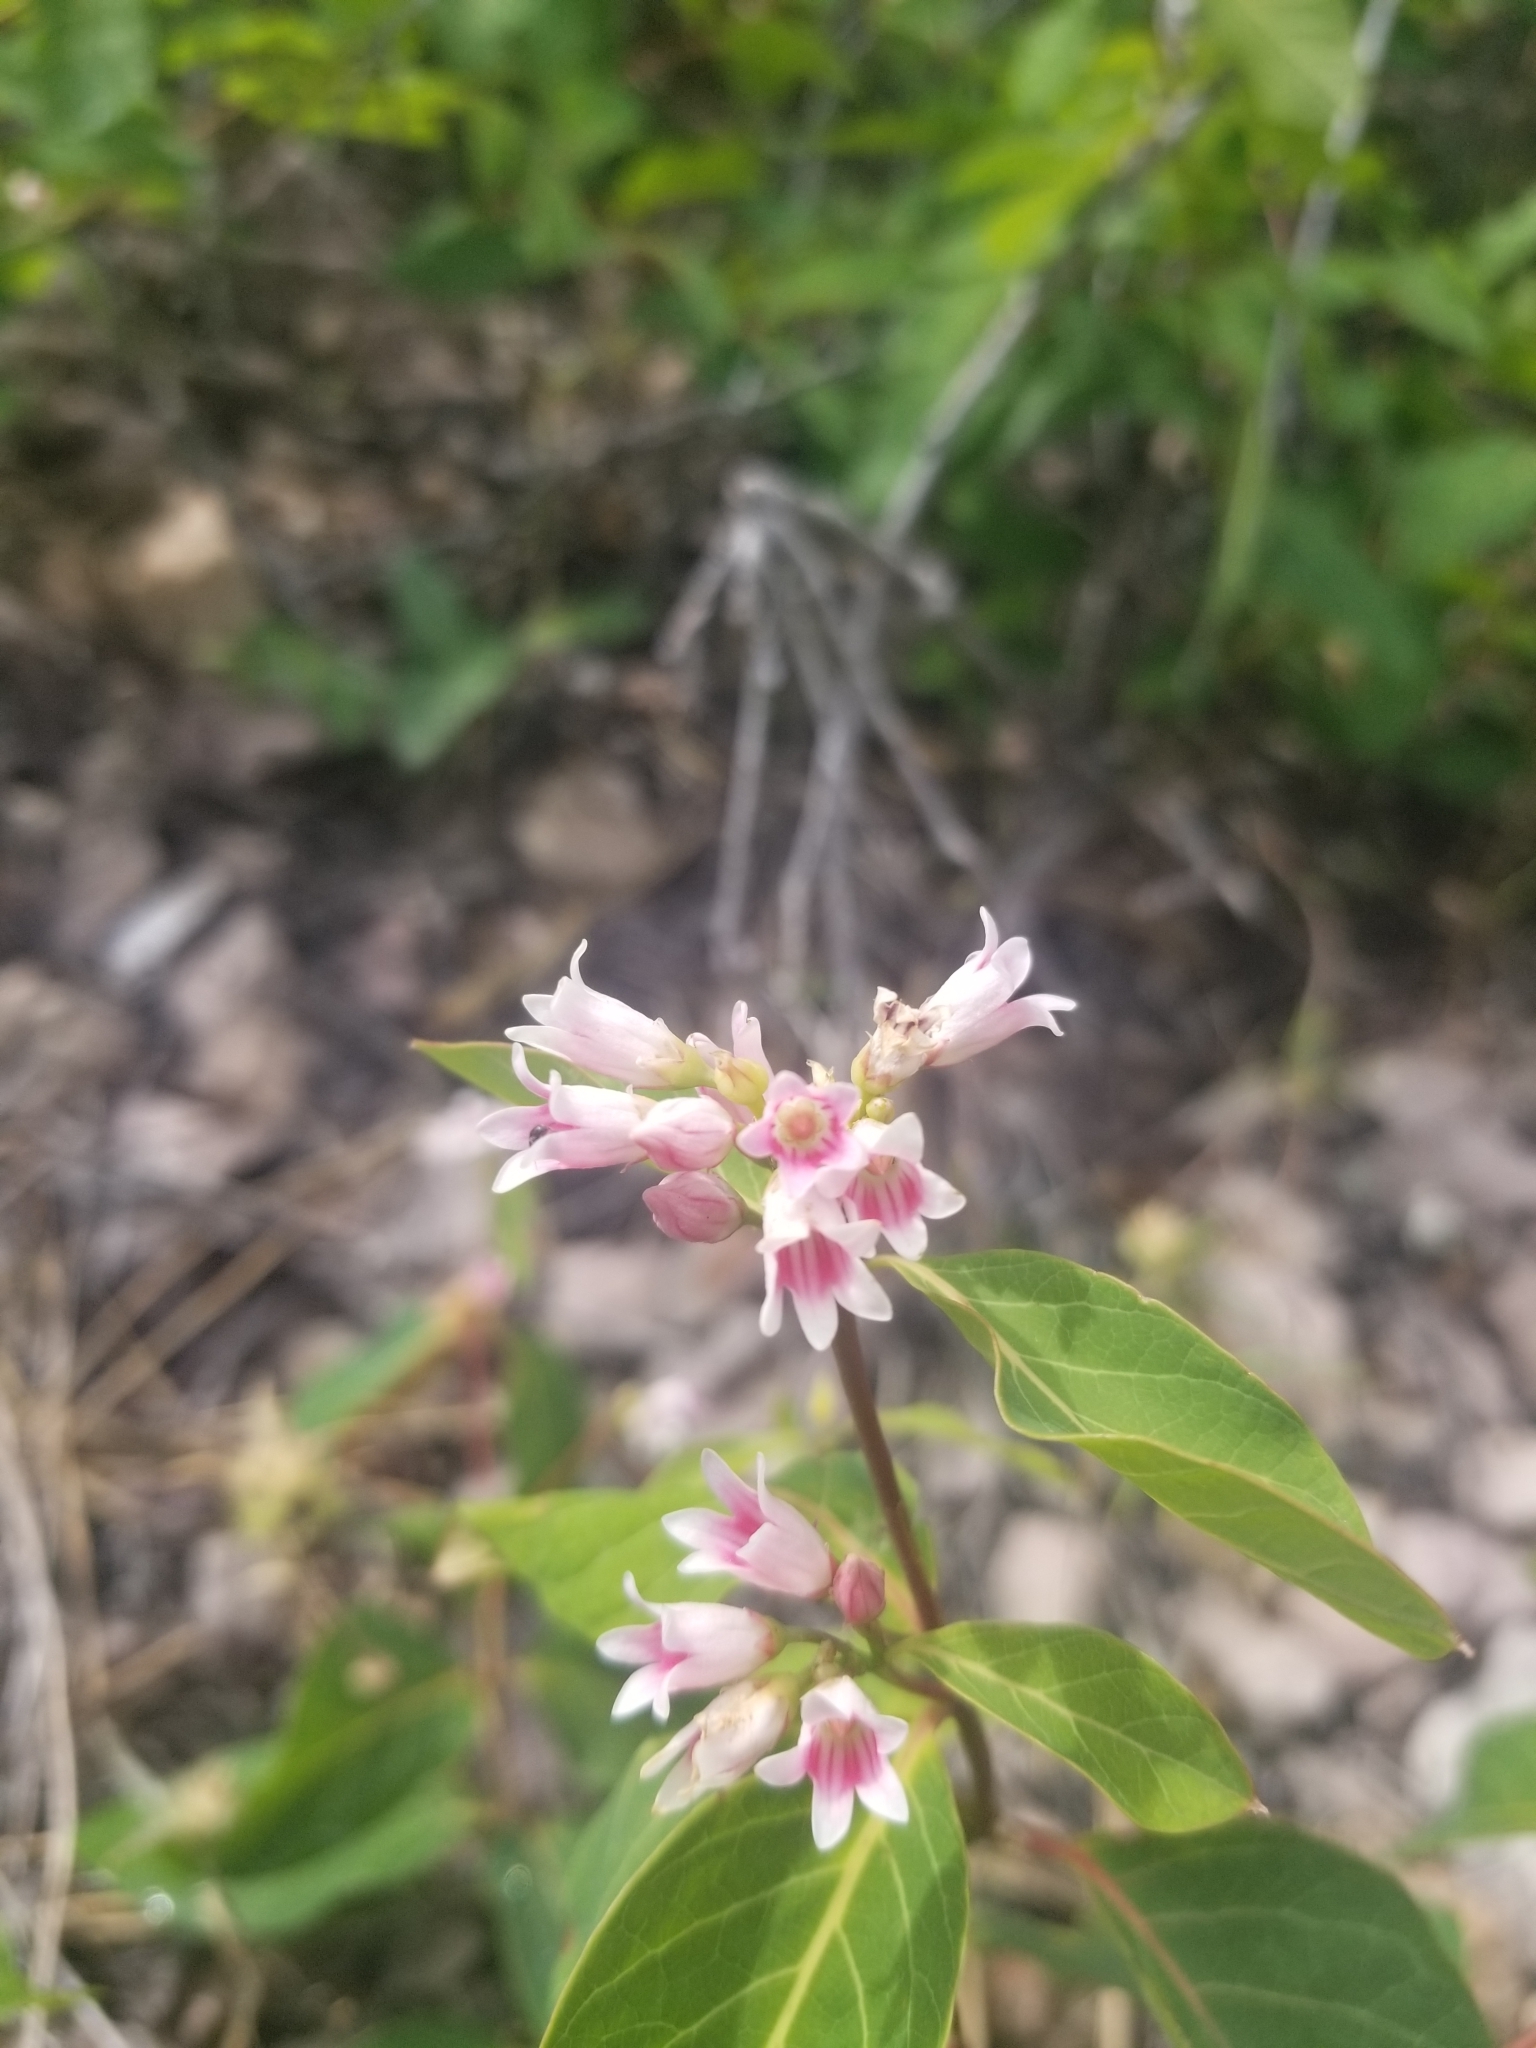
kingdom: Plantae
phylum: Tracheophyta
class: Magnoliopsida
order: Gentianales
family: Apocynaceae
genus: Apocynum
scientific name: Apocynum androsaemifolium
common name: Spreading dogbane
